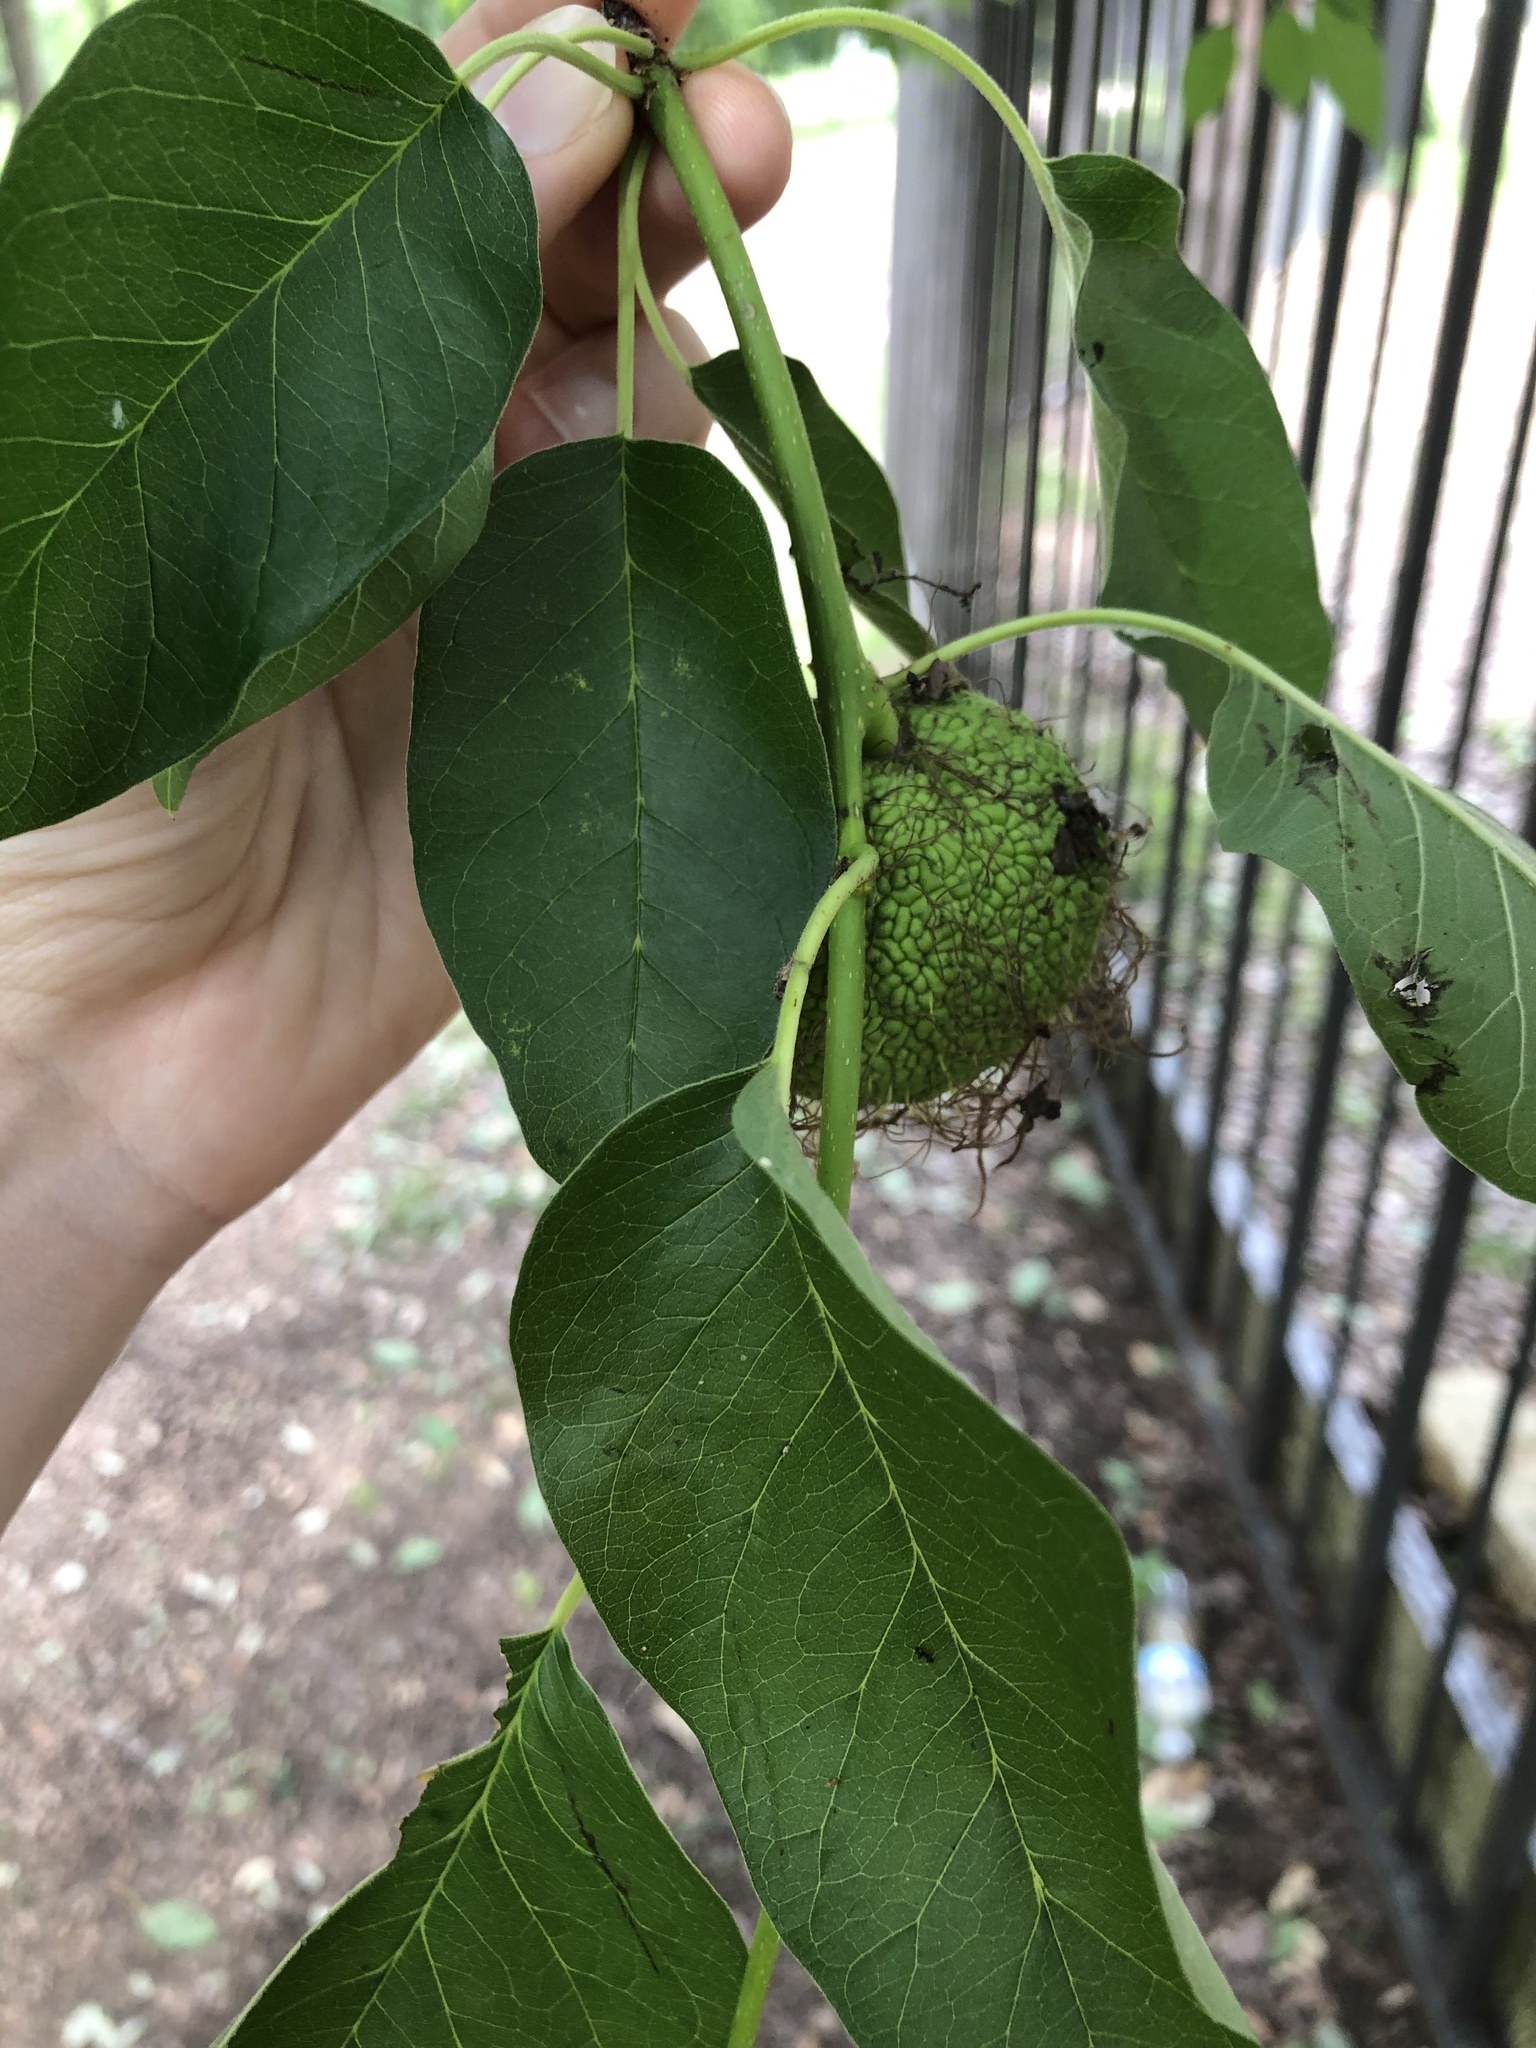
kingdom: Plantae
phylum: Tracheophyta
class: Magnoliopsida
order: Rosales
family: Moraceae
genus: Maclura
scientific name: Maclura pomifera
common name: Osage-orange
